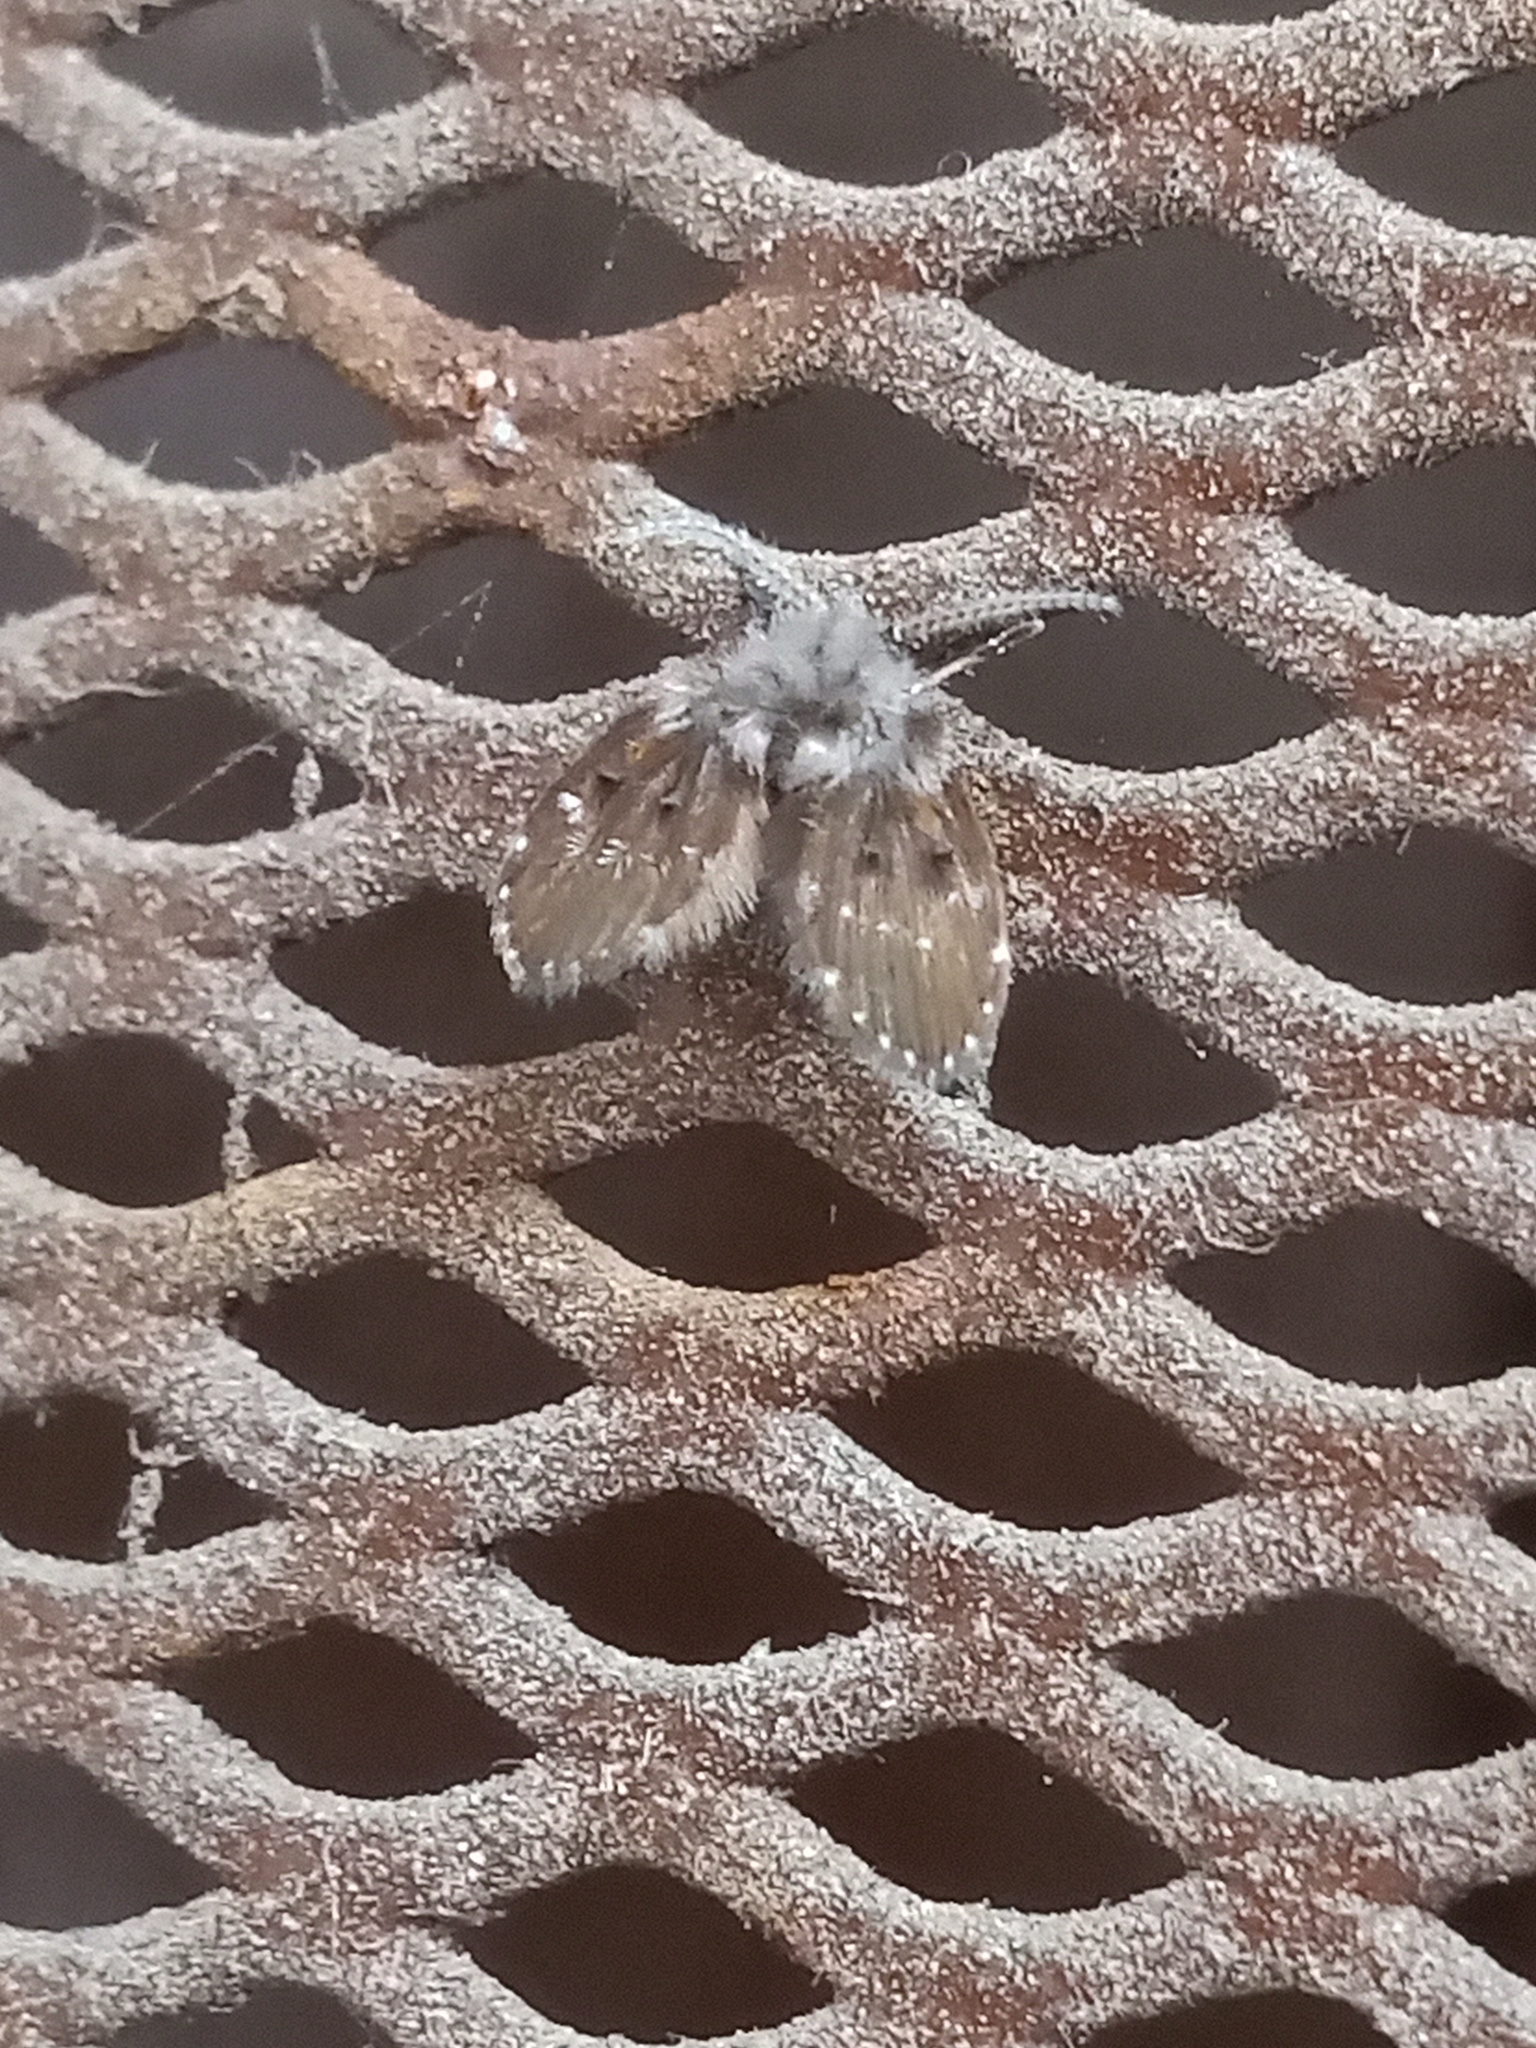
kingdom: Animalia
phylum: Arthropoda
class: Insecta
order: Diptera
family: Psychodidae
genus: Clogmia
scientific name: Clogmia albipunctatus
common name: White-spotted moth fly
